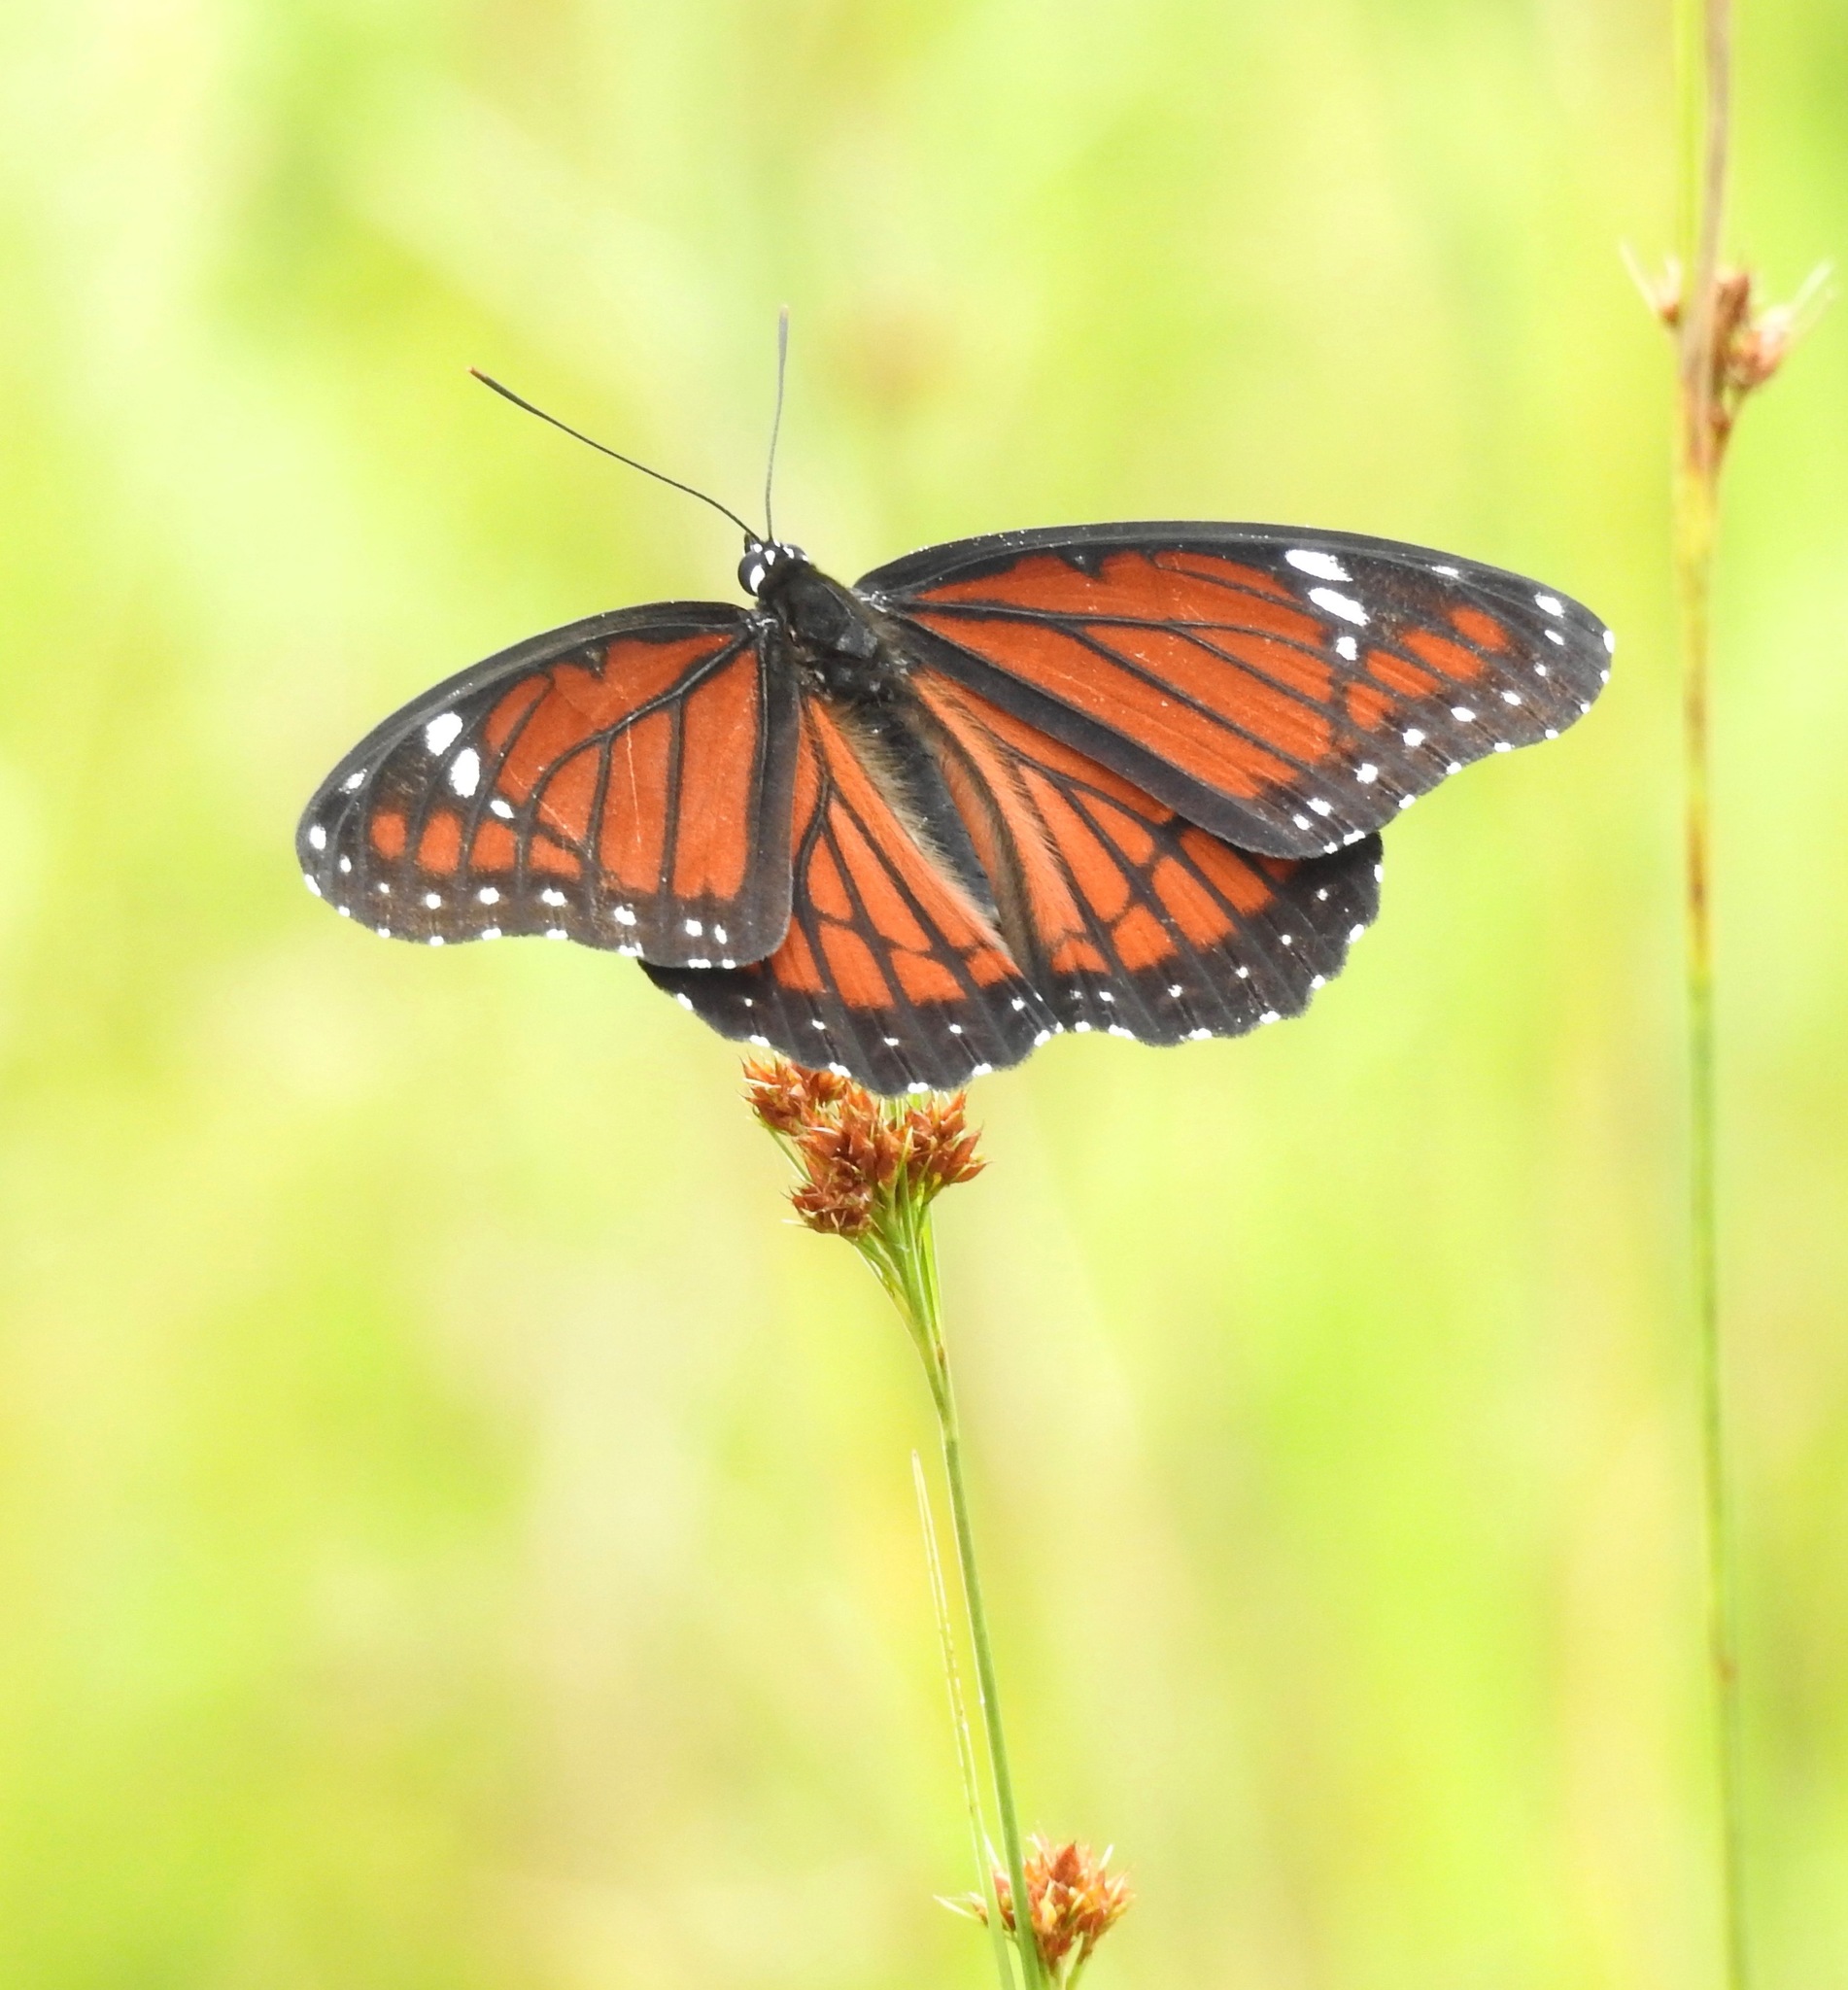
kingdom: Animalia
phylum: Arthropoda
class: Insecta
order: Lepidoptera
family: Nymphalidae
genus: Limenitis
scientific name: Limenitis archippus
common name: Viceroy
